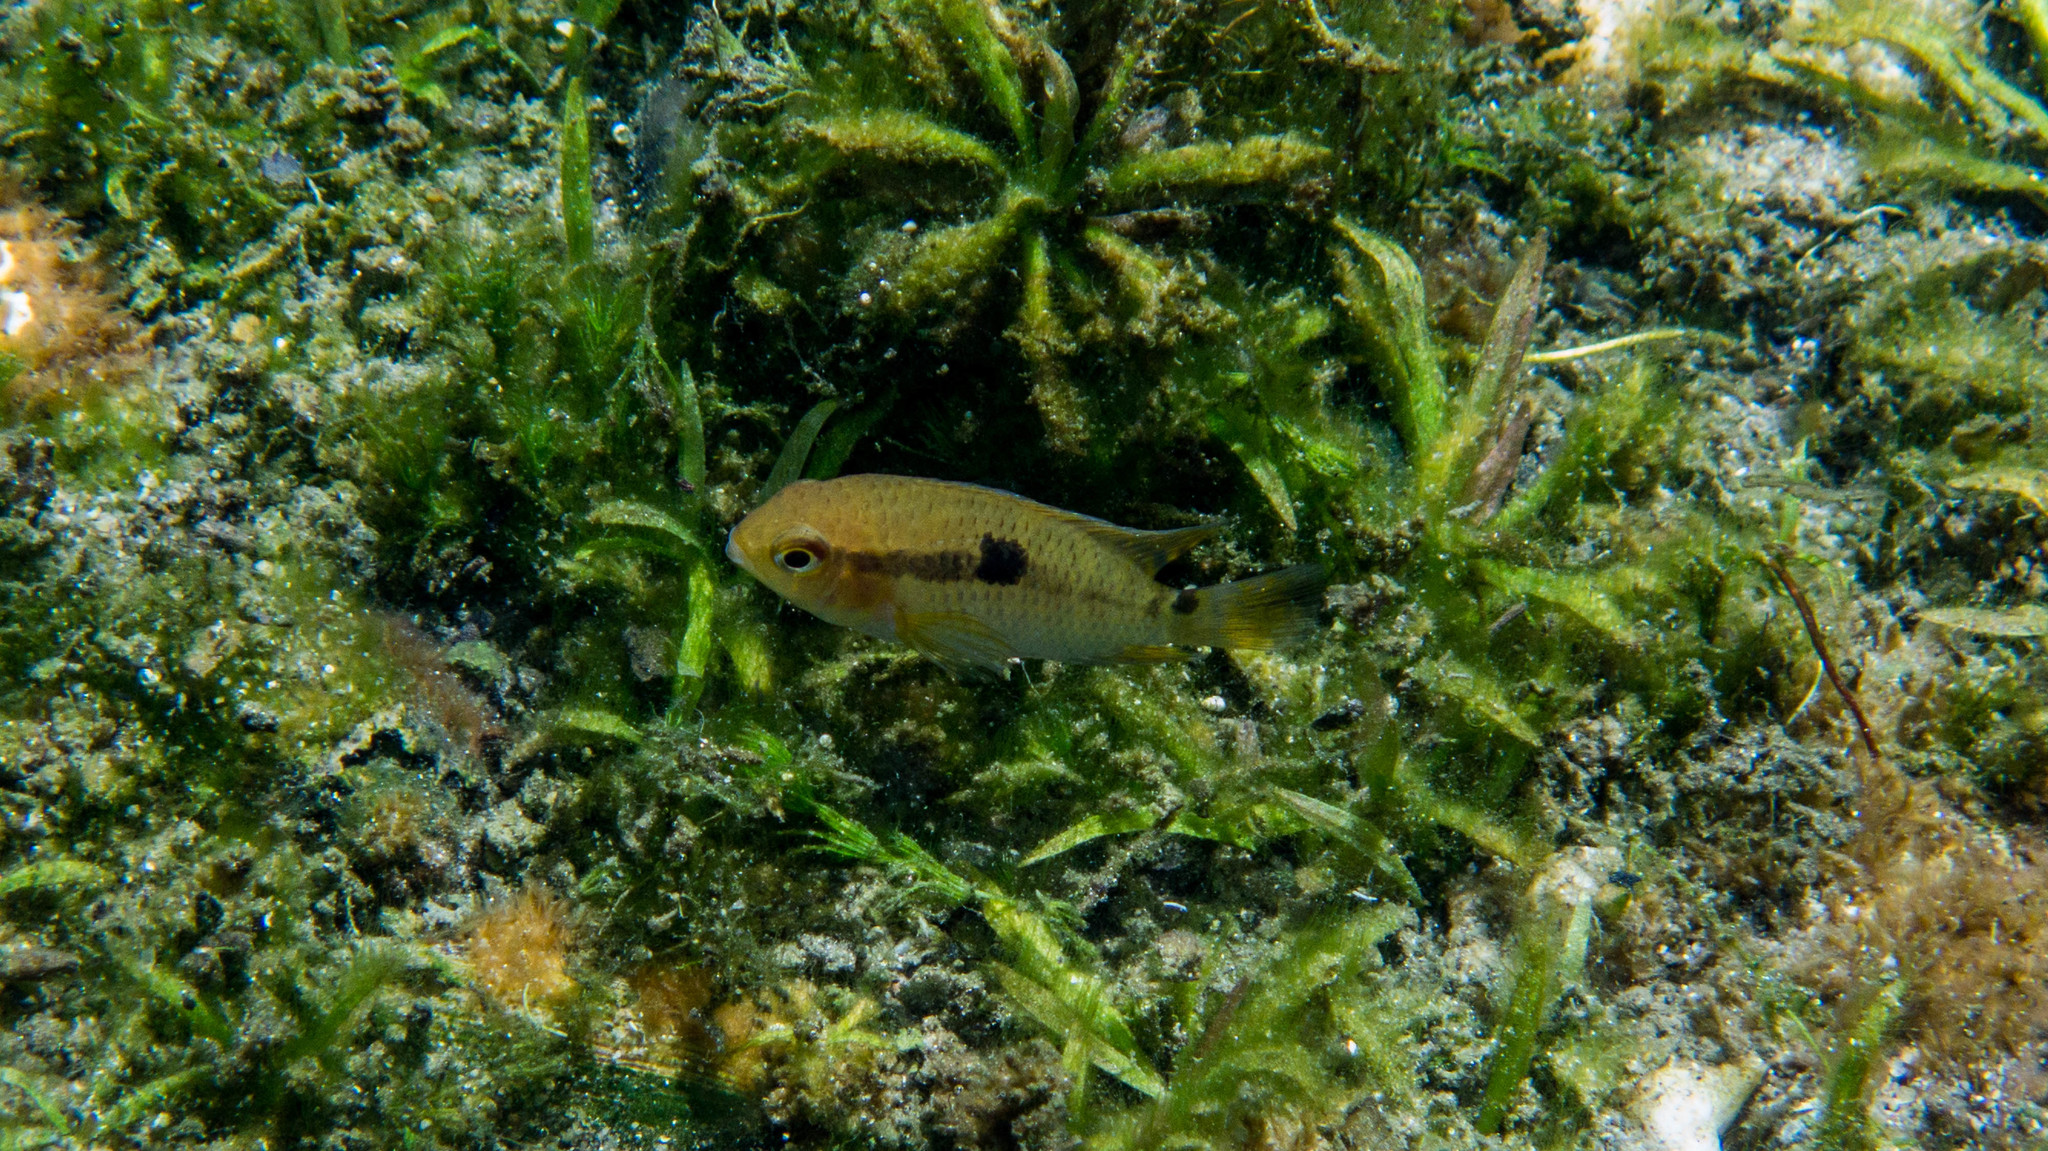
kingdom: Animalia
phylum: Chordata
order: Perciformes
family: Cichlidae
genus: Cichlasoma
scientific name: Cichlasoma dimerus
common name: Chanchita
